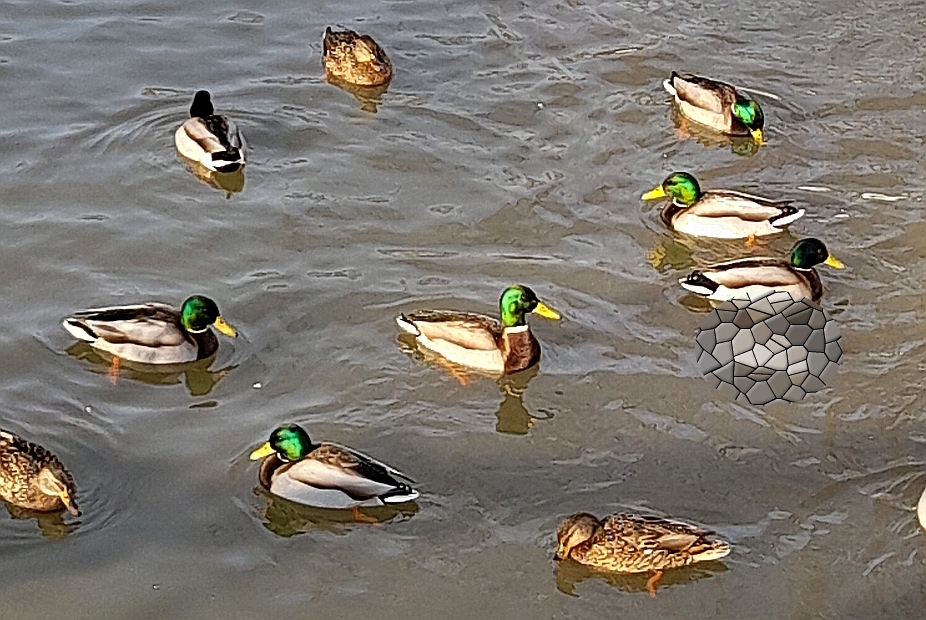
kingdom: Animalia
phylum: Chordata
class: Aves
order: Anseriformes
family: Anatidae
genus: Anas
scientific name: Anas platyrhynchos
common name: Mallard
